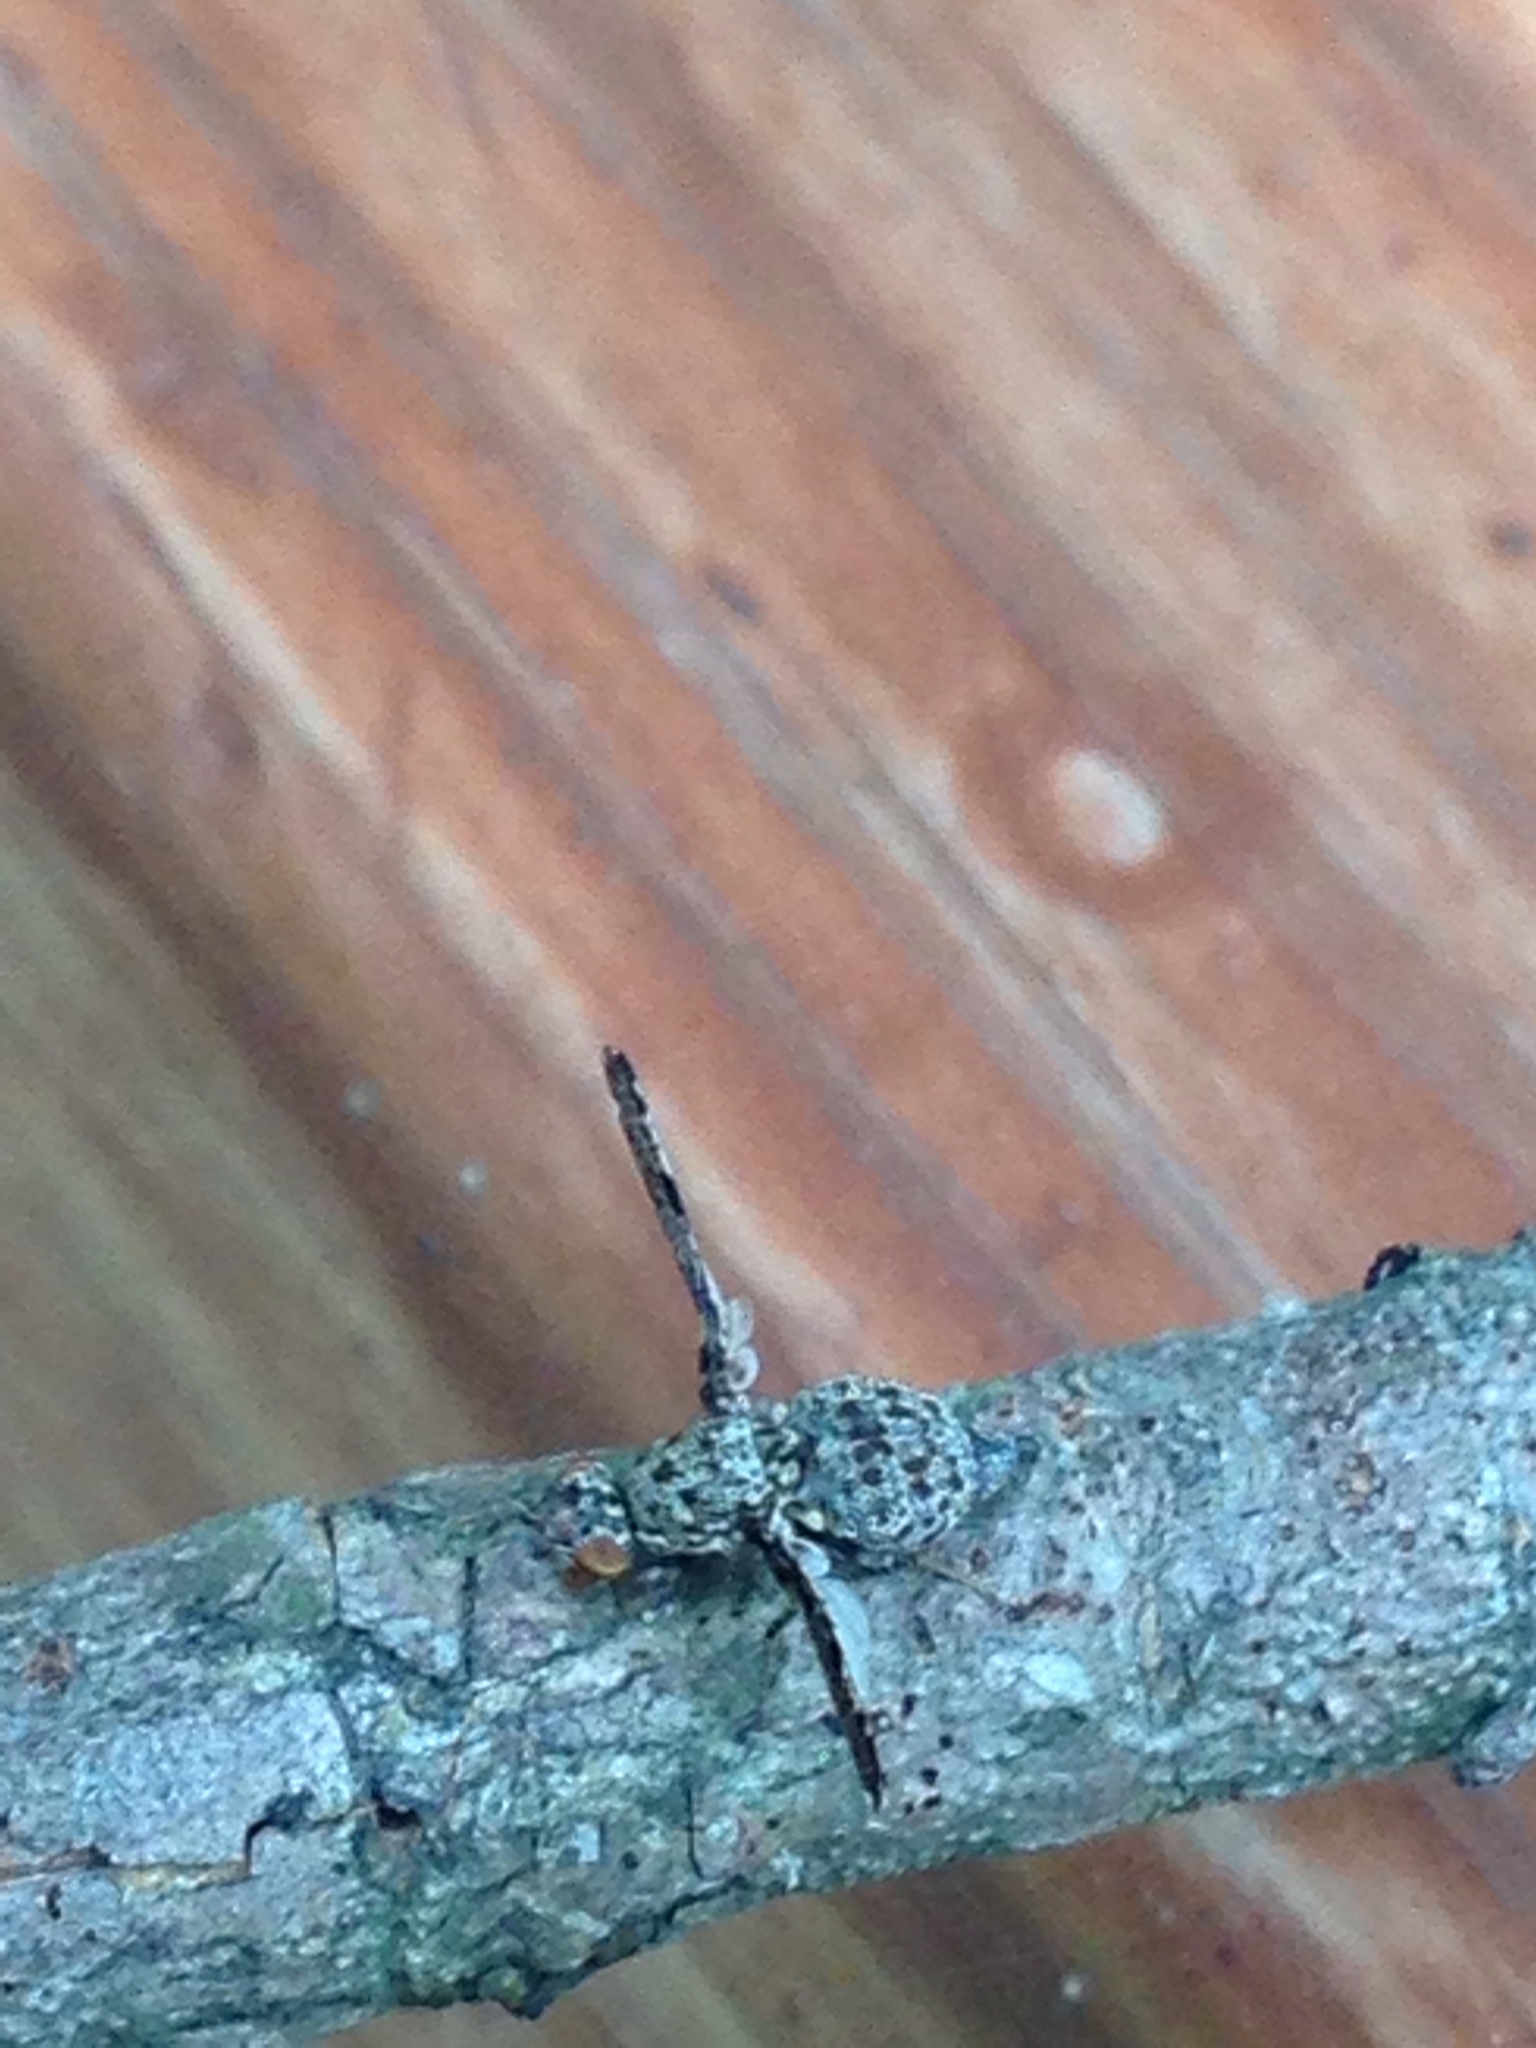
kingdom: Animalia
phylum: Arthropoda
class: Insecta
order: Diptera
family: Ulidiidae
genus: Callopistromyia
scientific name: Callopistromyia strigula
